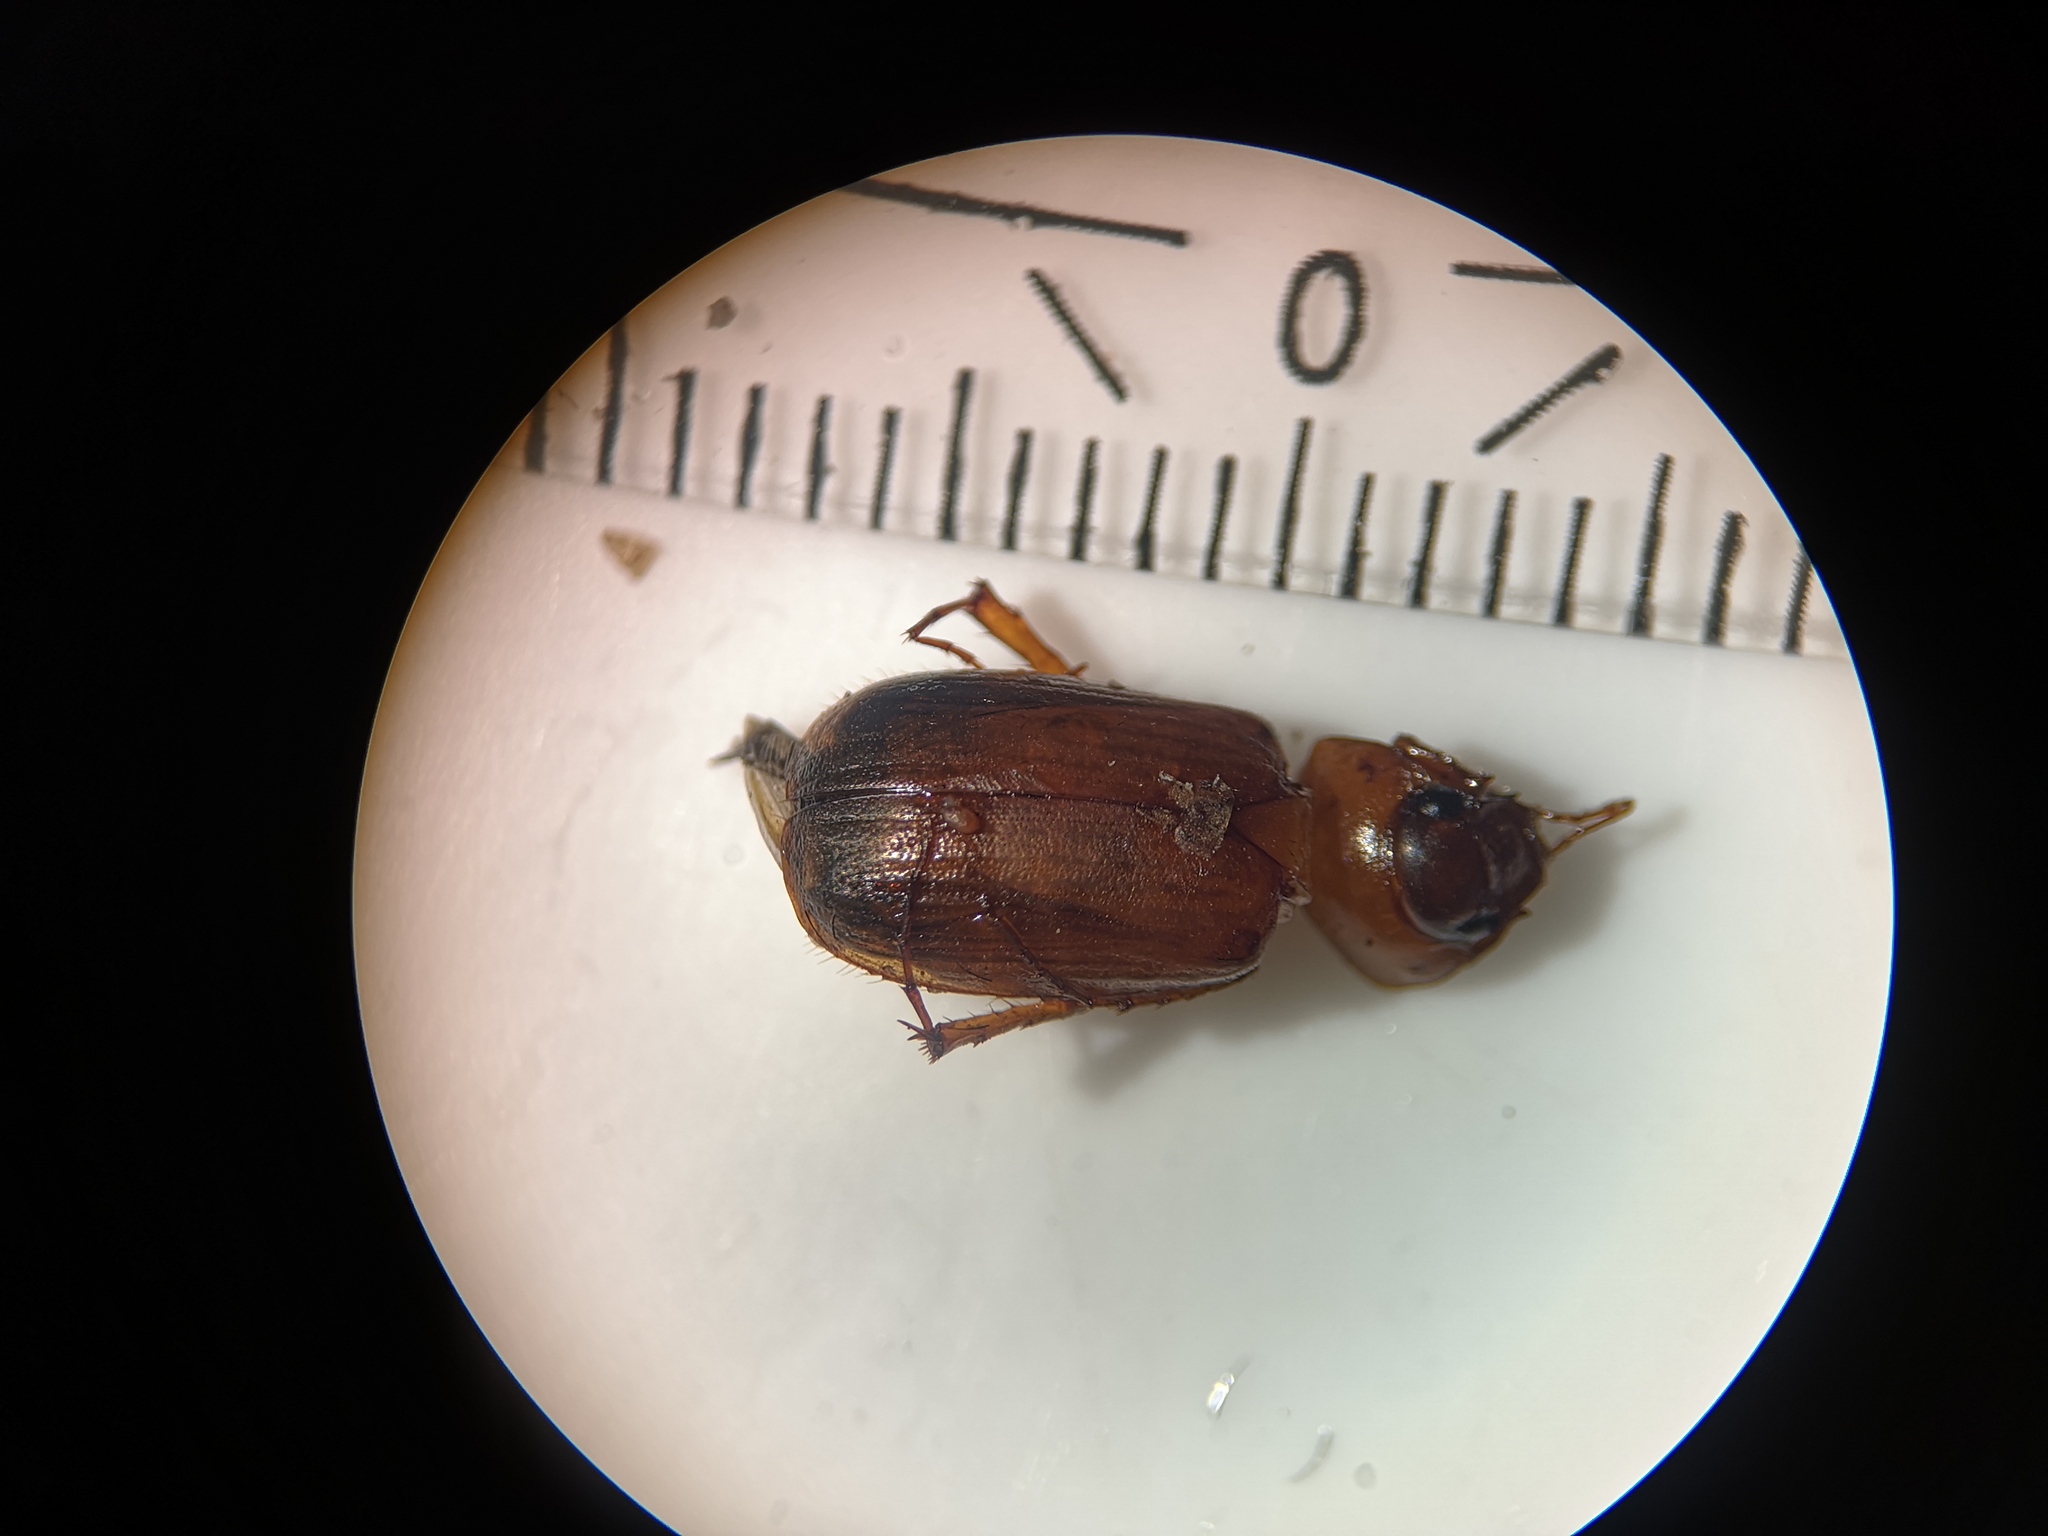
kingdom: Animalia
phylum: Arthropoda
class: Insecta
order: Coleoptera
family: Scarabaeidae
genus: Serica
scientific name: Serica brunnea
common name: Brown chafer
